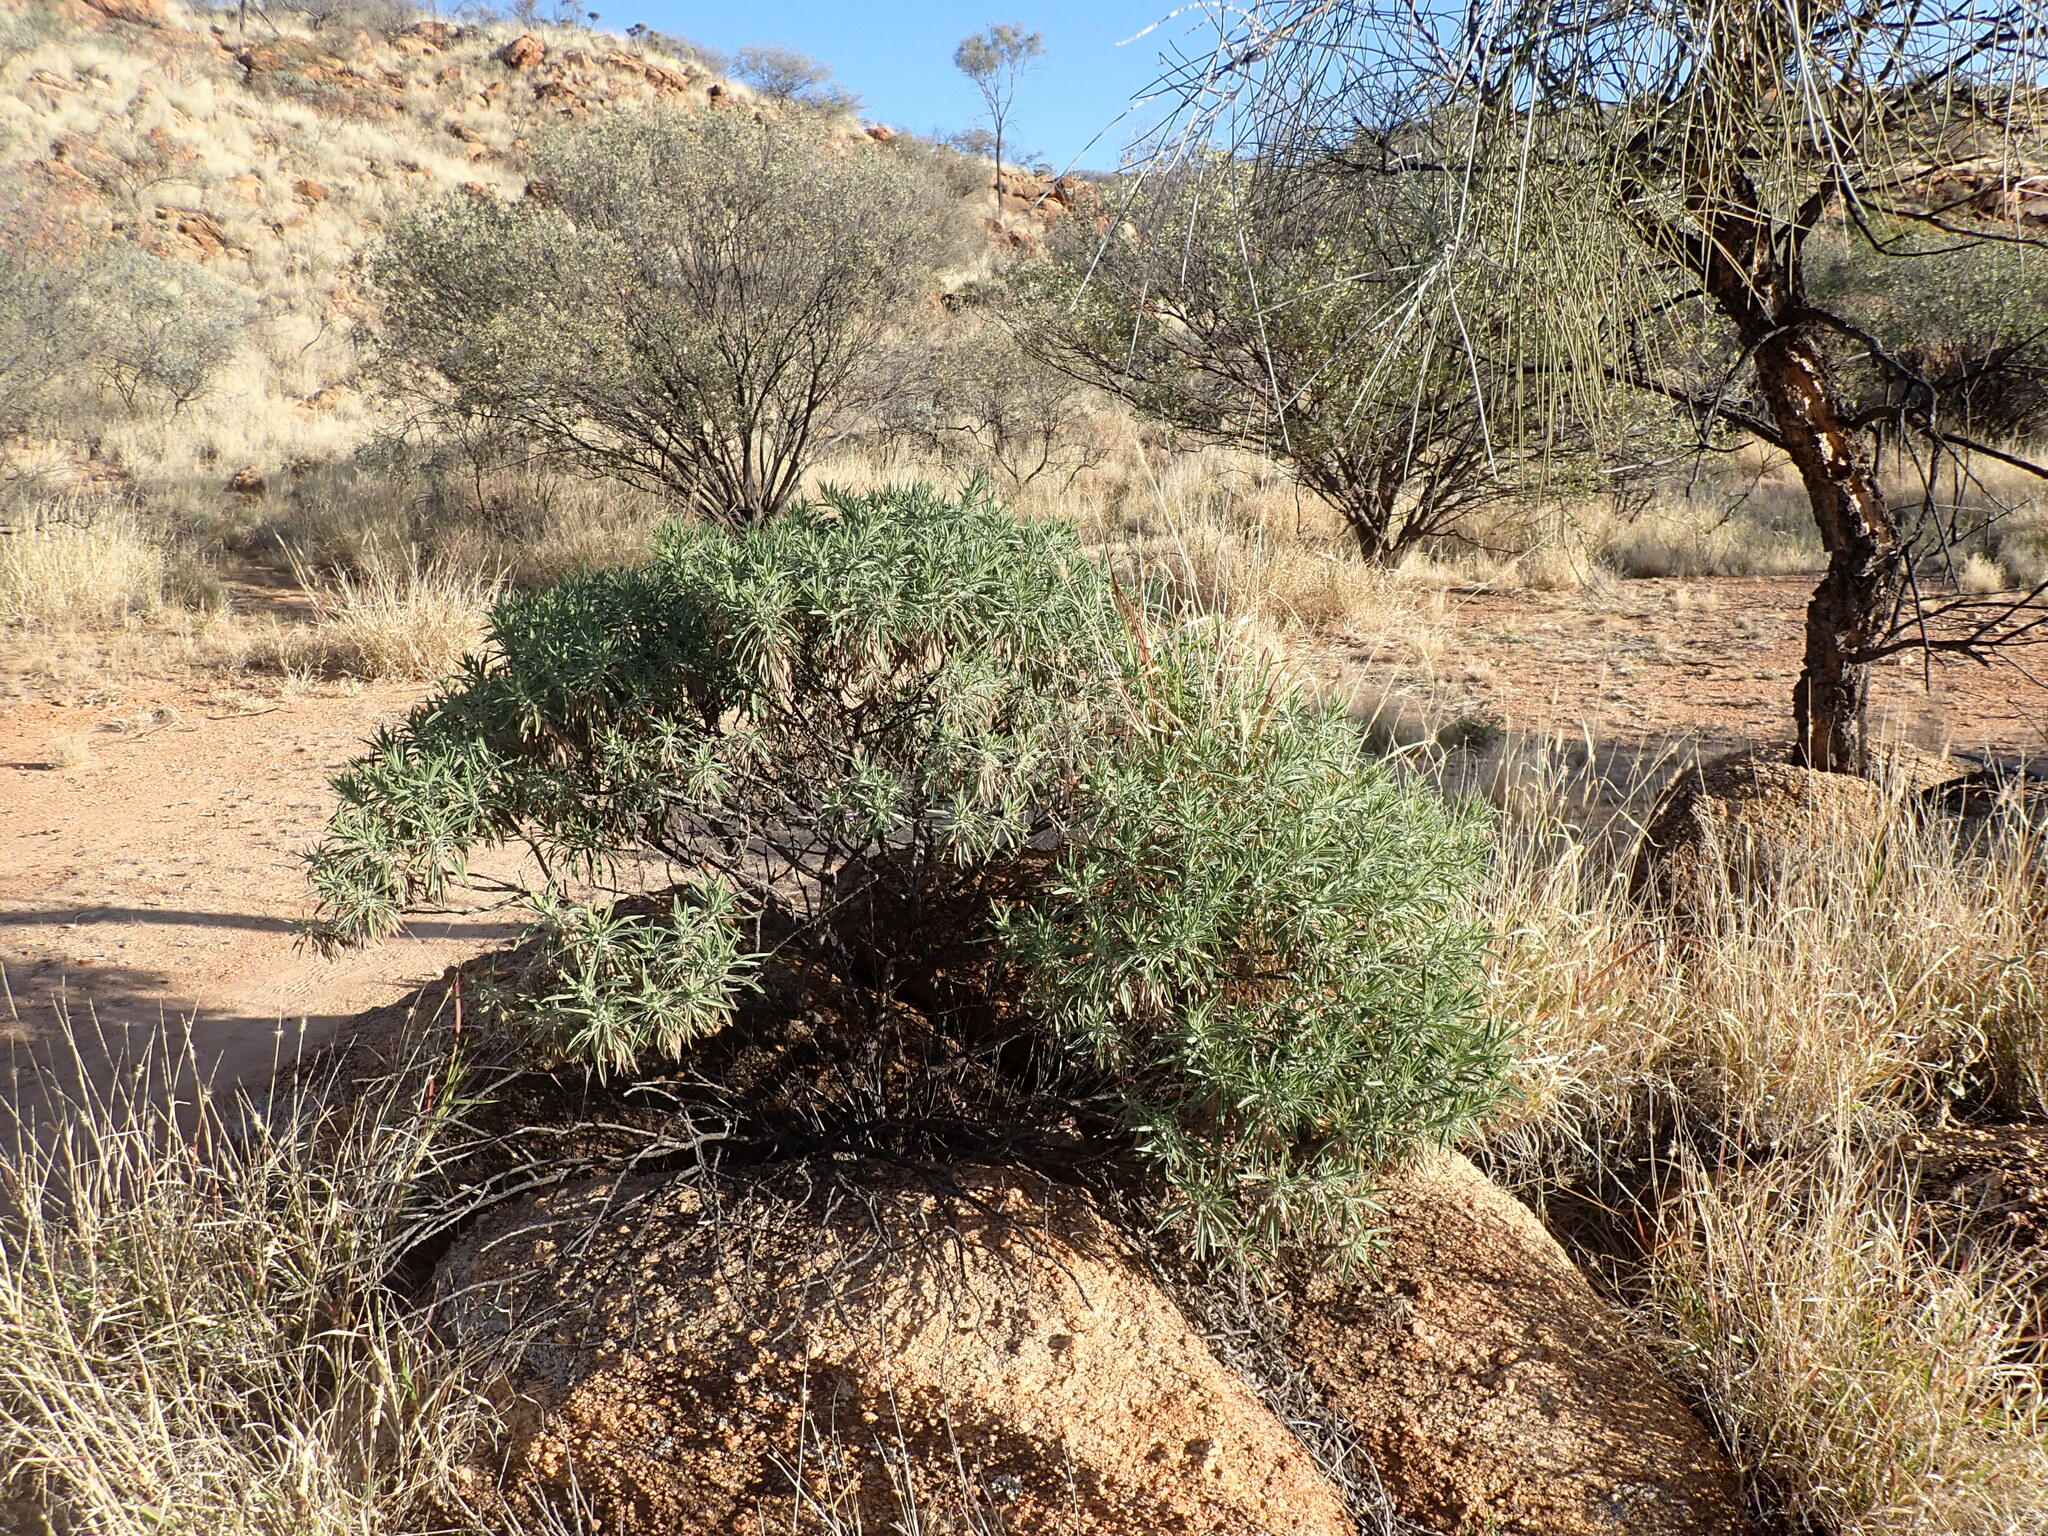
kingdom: Plantae
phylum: Tracheophyta
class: Magnoliopsida
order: Lamiales
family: Scrophulariaceae
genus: Eremophila
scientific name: Eremophila freelingii
